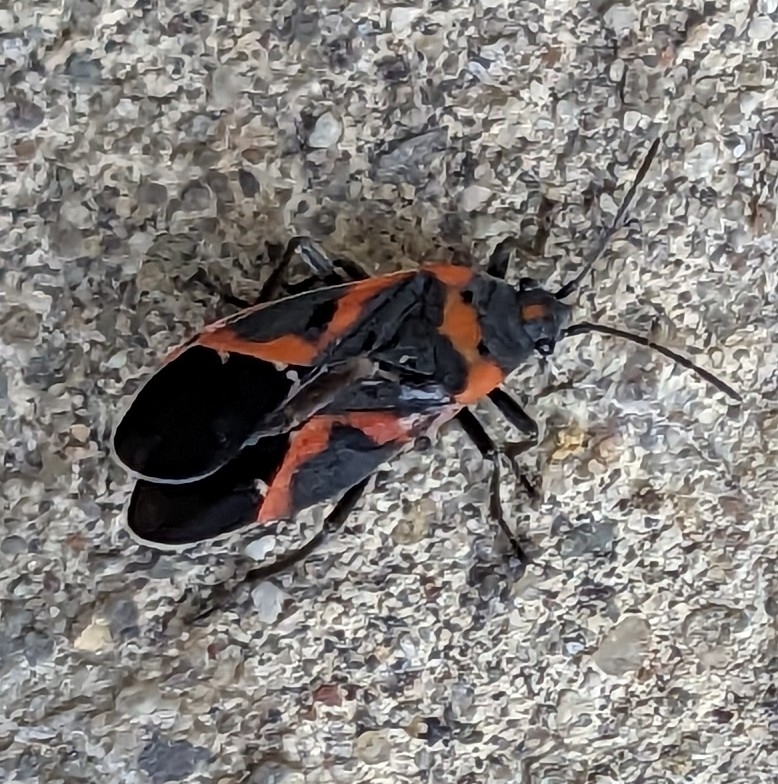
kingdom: Animalia
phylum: Arthropoda
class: Insecta
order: Hemiptera
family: Lygaeidae
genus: Lygaeus
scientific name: Lygaeus kalmii
